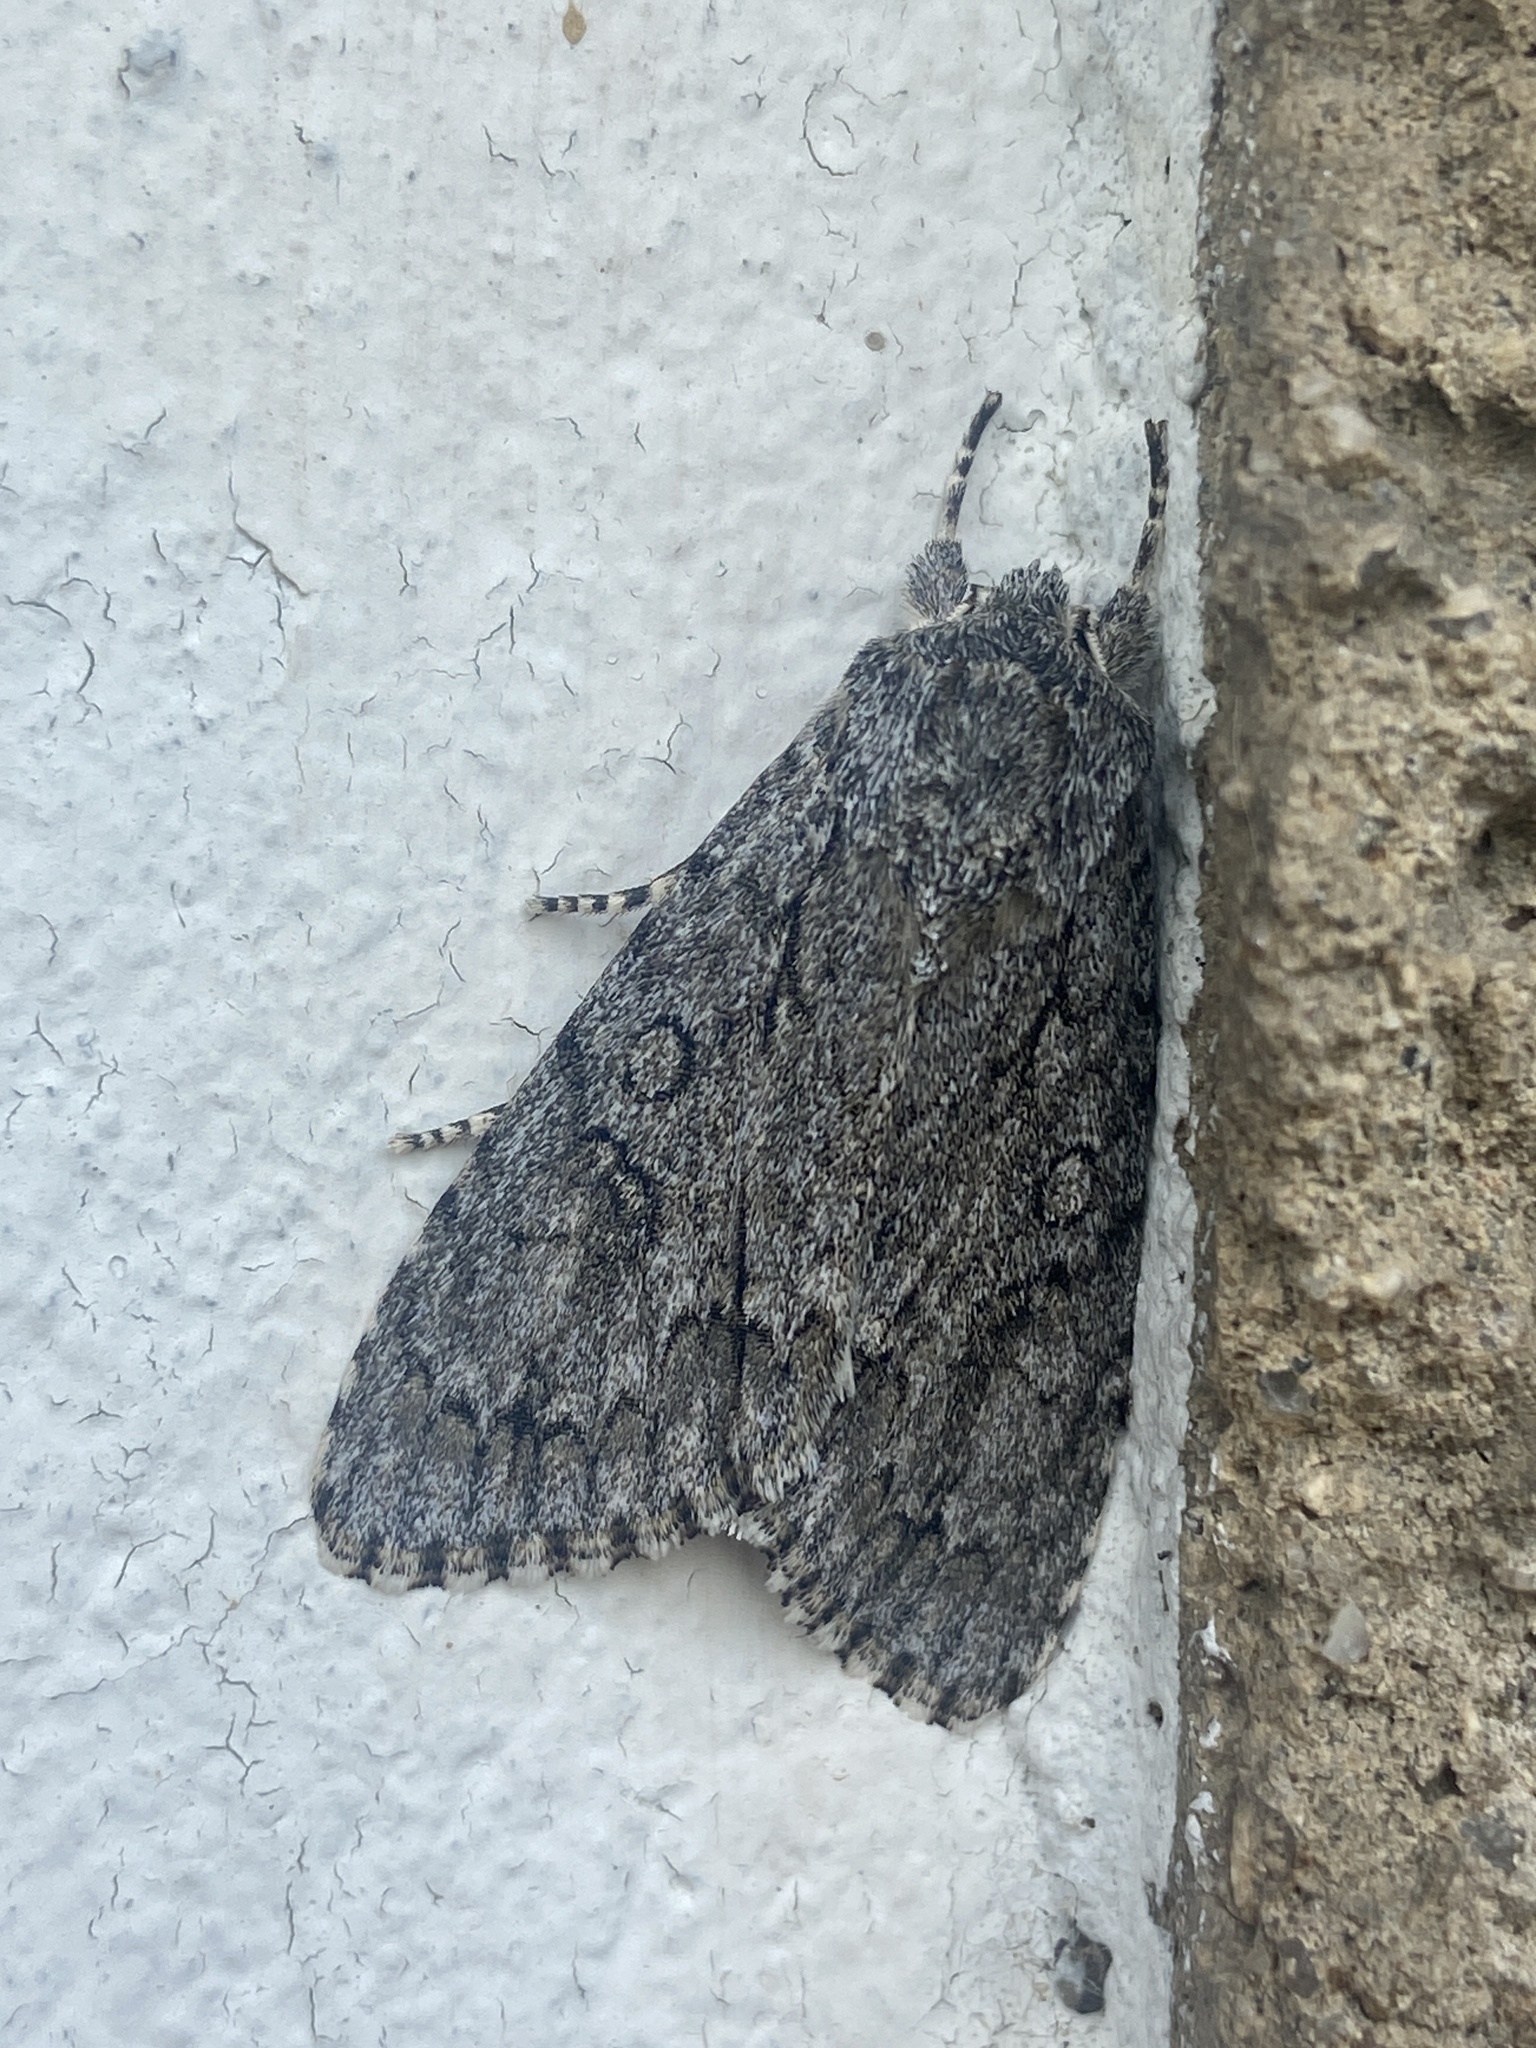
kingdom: Animalia
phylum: Arthropoda
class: Insecta
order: Lepidoptera
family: Noctuidae
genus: Acronicta
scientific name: Acronicta aceris
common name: Sycamore
